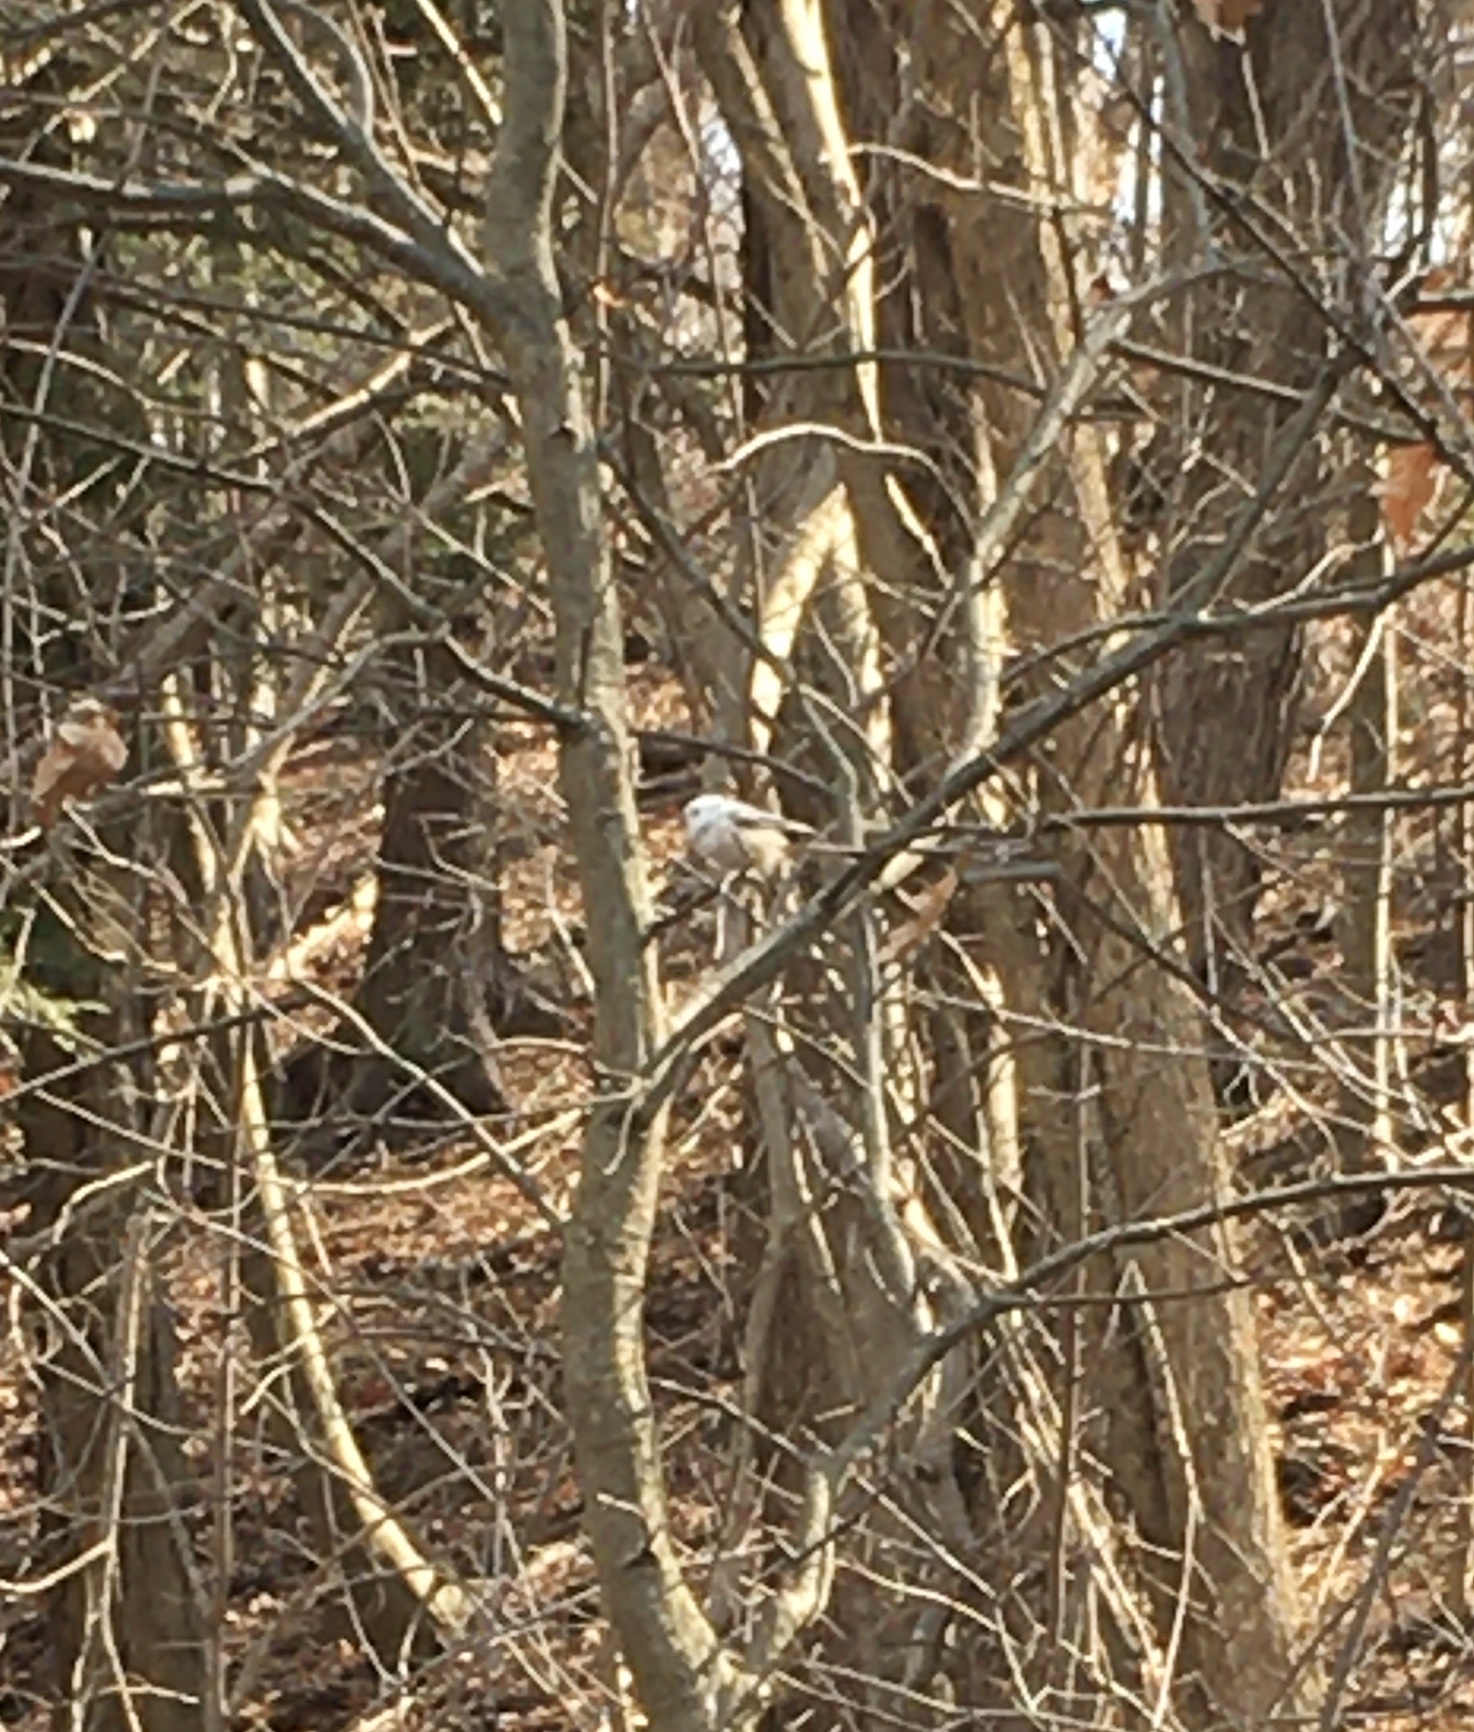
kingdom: Animalia
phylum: Chordata
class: Aves
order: Passeriformes
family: Paridae
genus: Baeolophus
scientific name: Baeolophus bicolor
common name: Tufted titmouse
